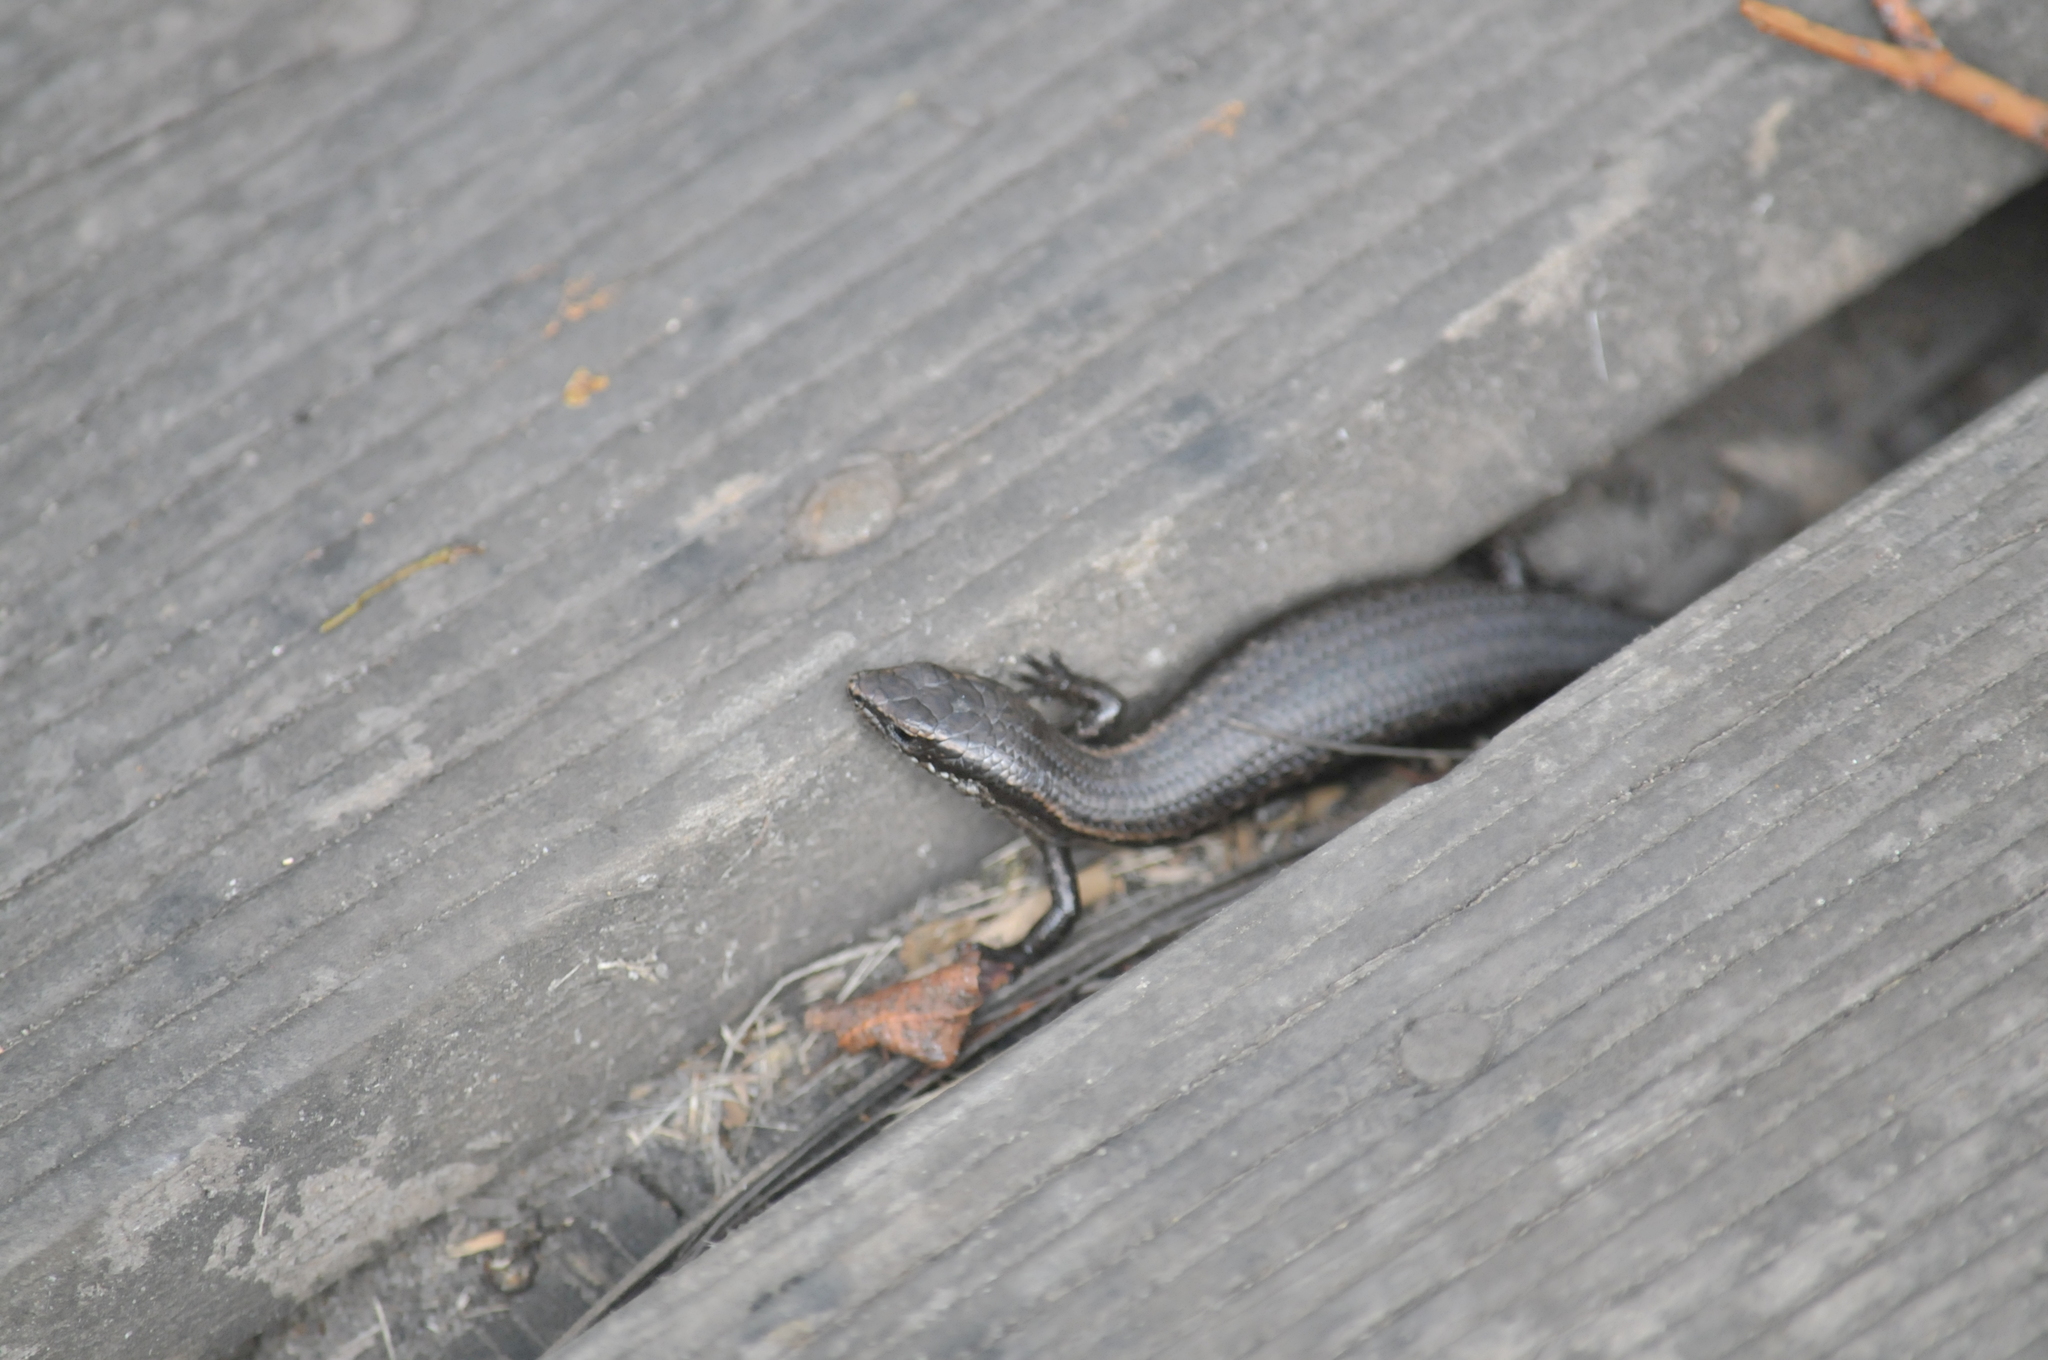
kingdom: Animalia
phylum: Chordata
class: Squamata
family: Scincidae
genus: Carinascincus
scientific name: Carinascincus metallicus
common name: Metallic cool-skink
